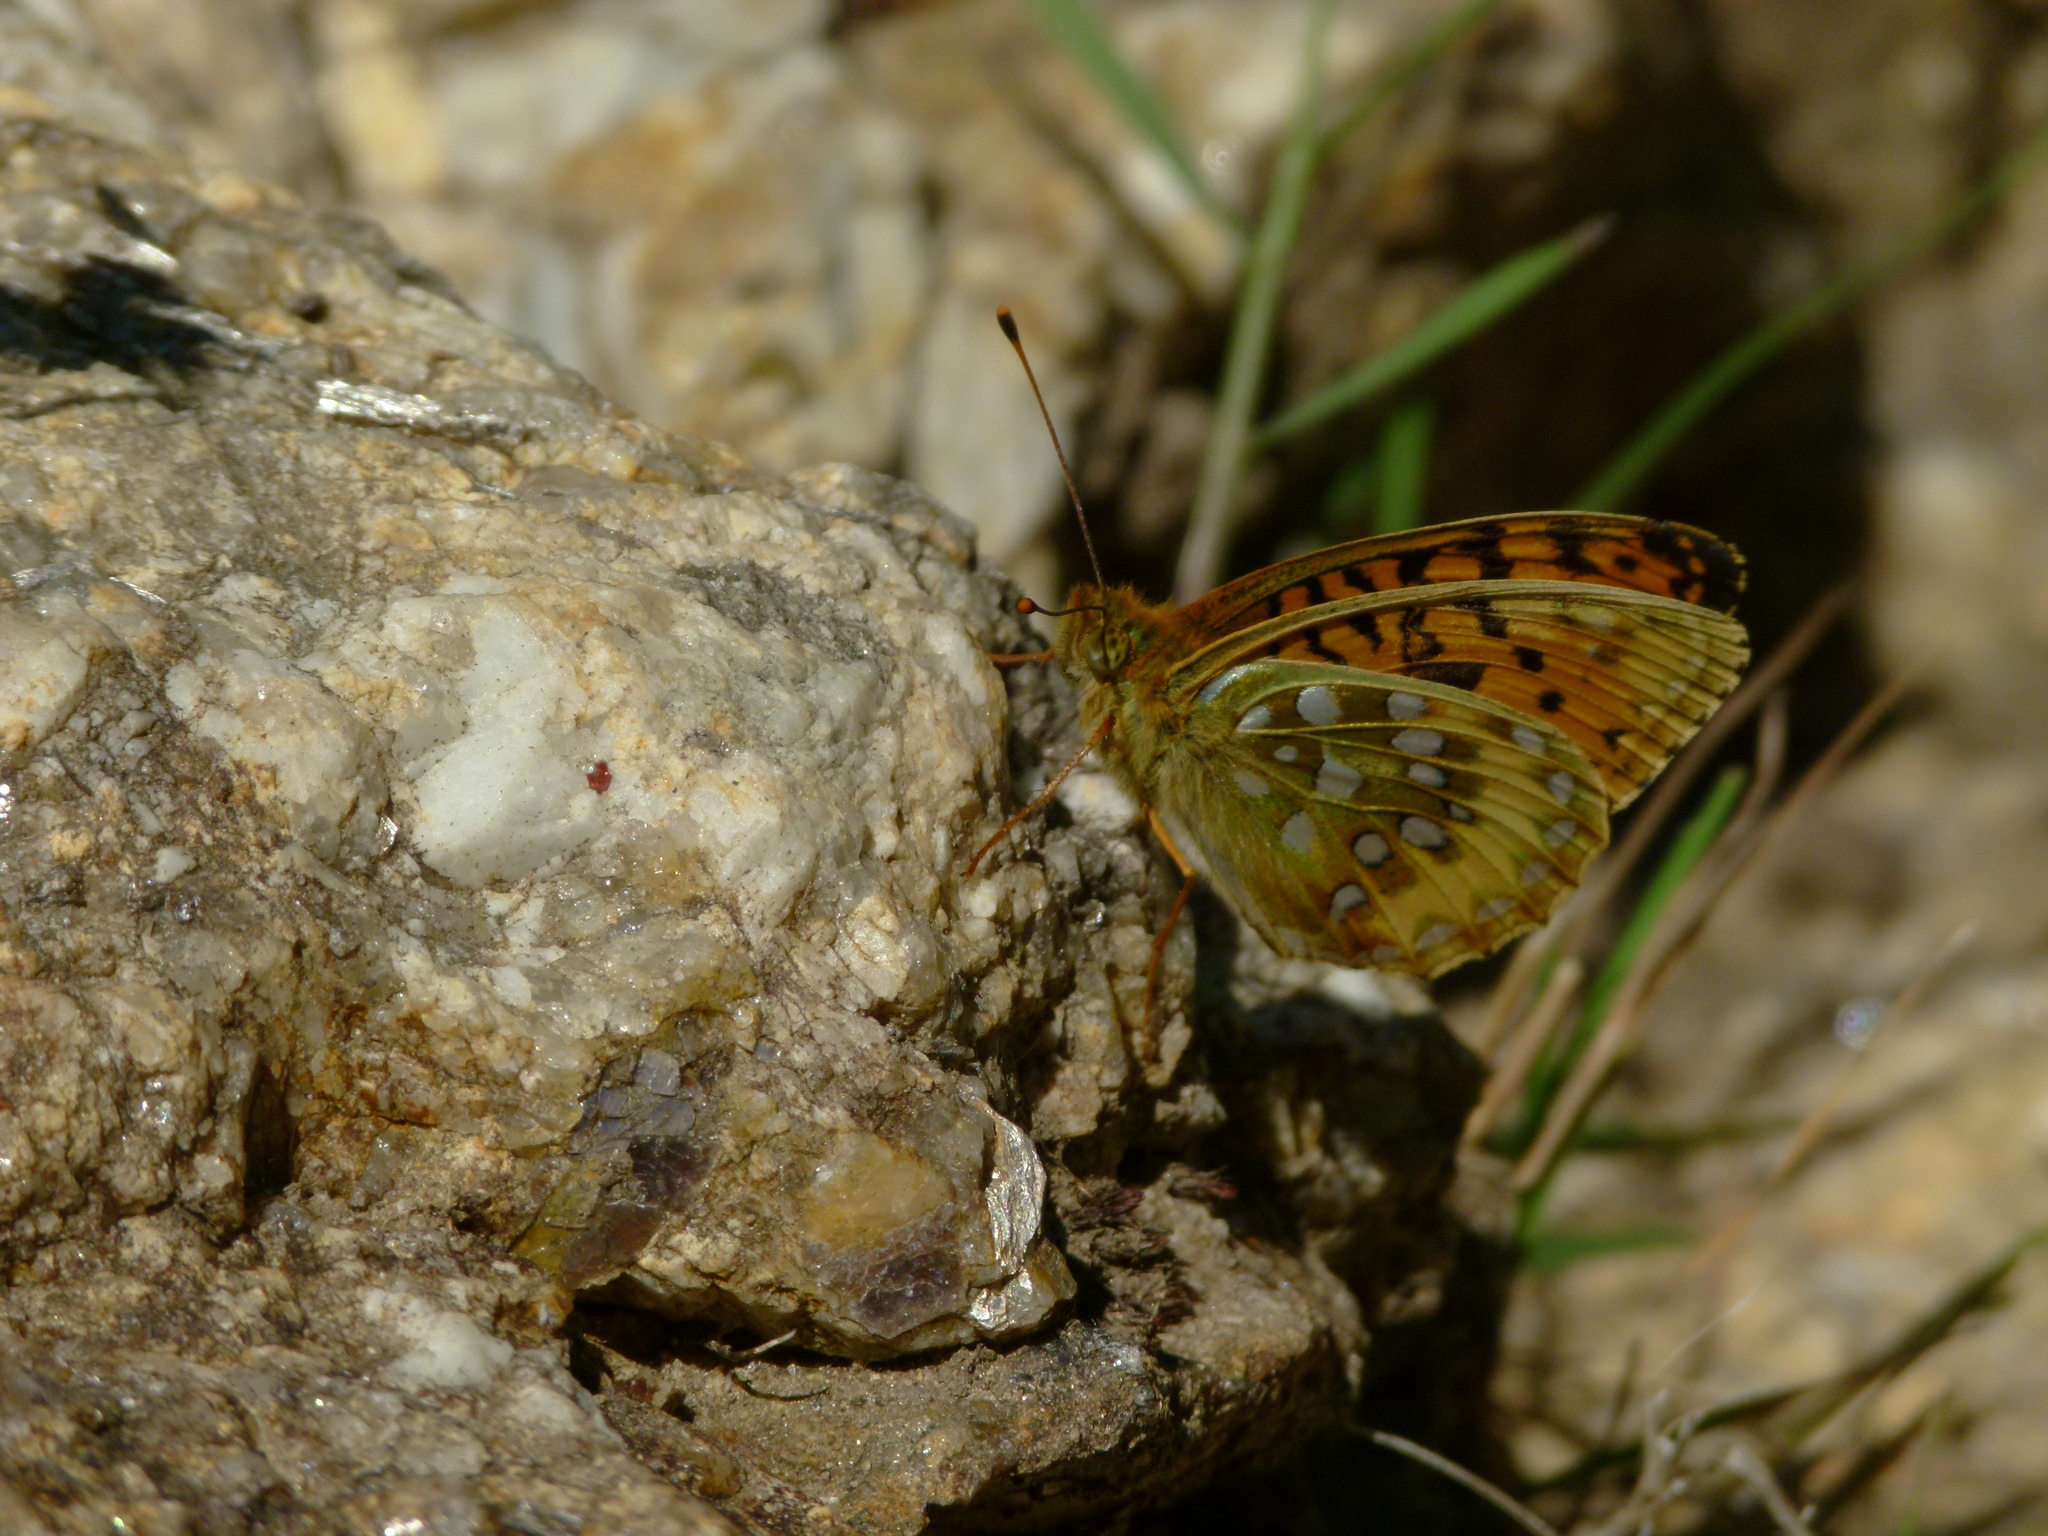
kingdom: Animalia
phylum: Arthropoda
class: Insecta
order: Lepidoptera
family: Nymphalidae
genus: Speyeria
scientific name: Speyeria aglaja
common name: Dark green fritillary
